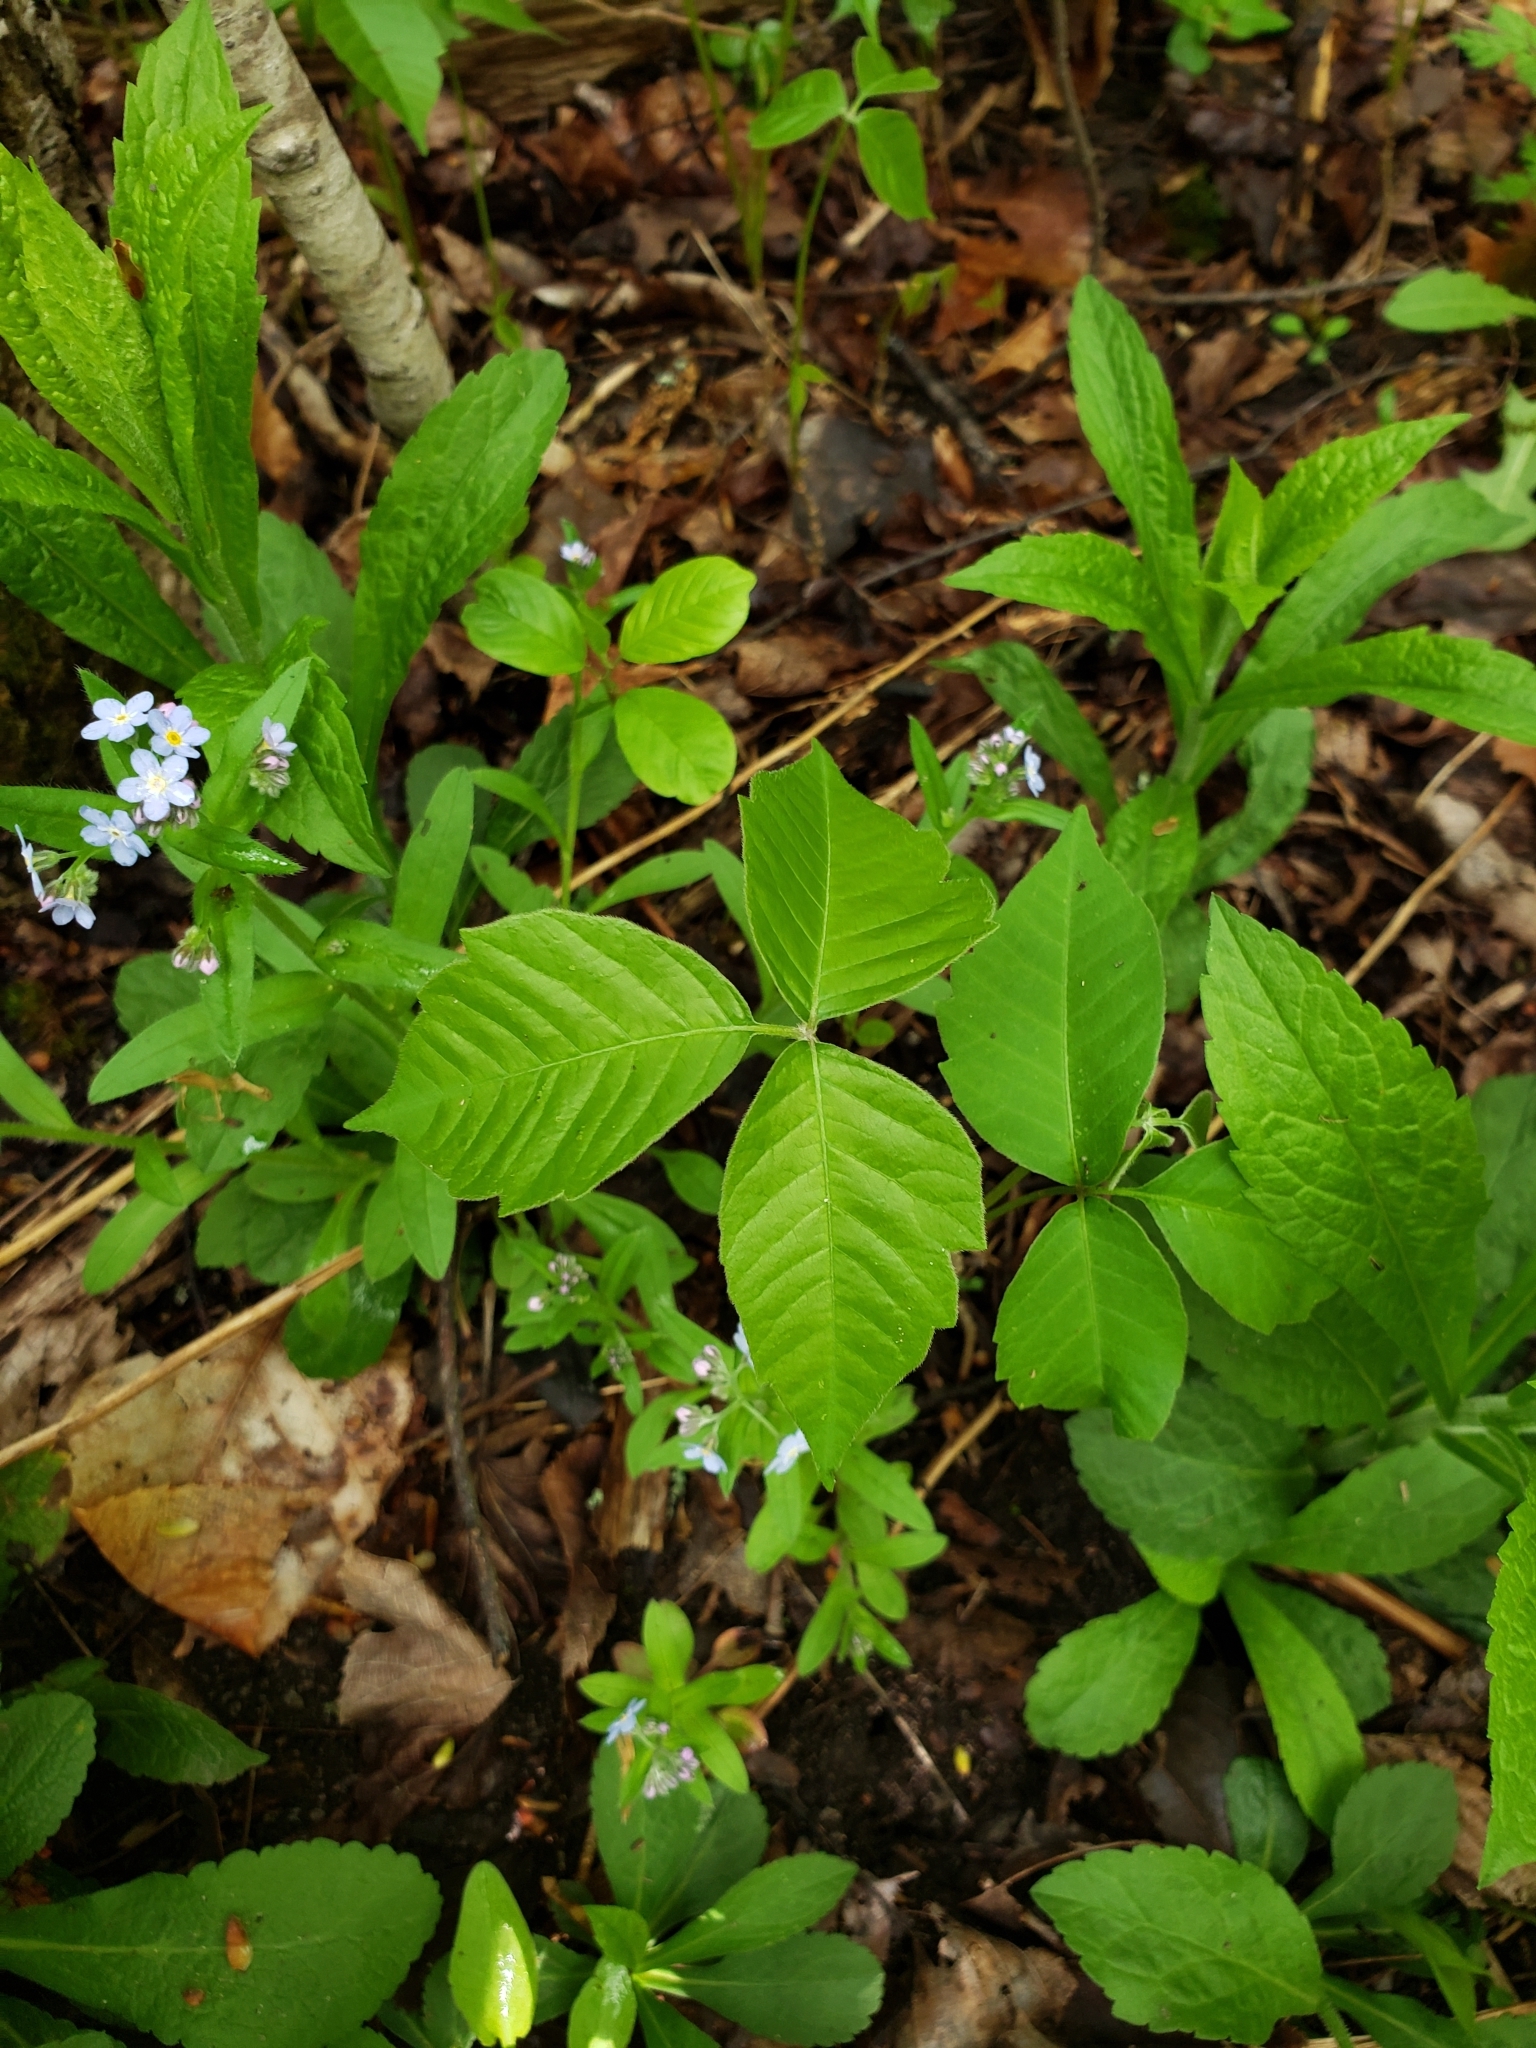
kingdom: Plantae
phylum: Tracheophyta
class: Magnoliopsida
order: Sapindales
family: Anacardiaceae
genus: Toxicodendron
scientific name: Toxicodendron rydbergii
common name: Rydberg's poison-ivy
